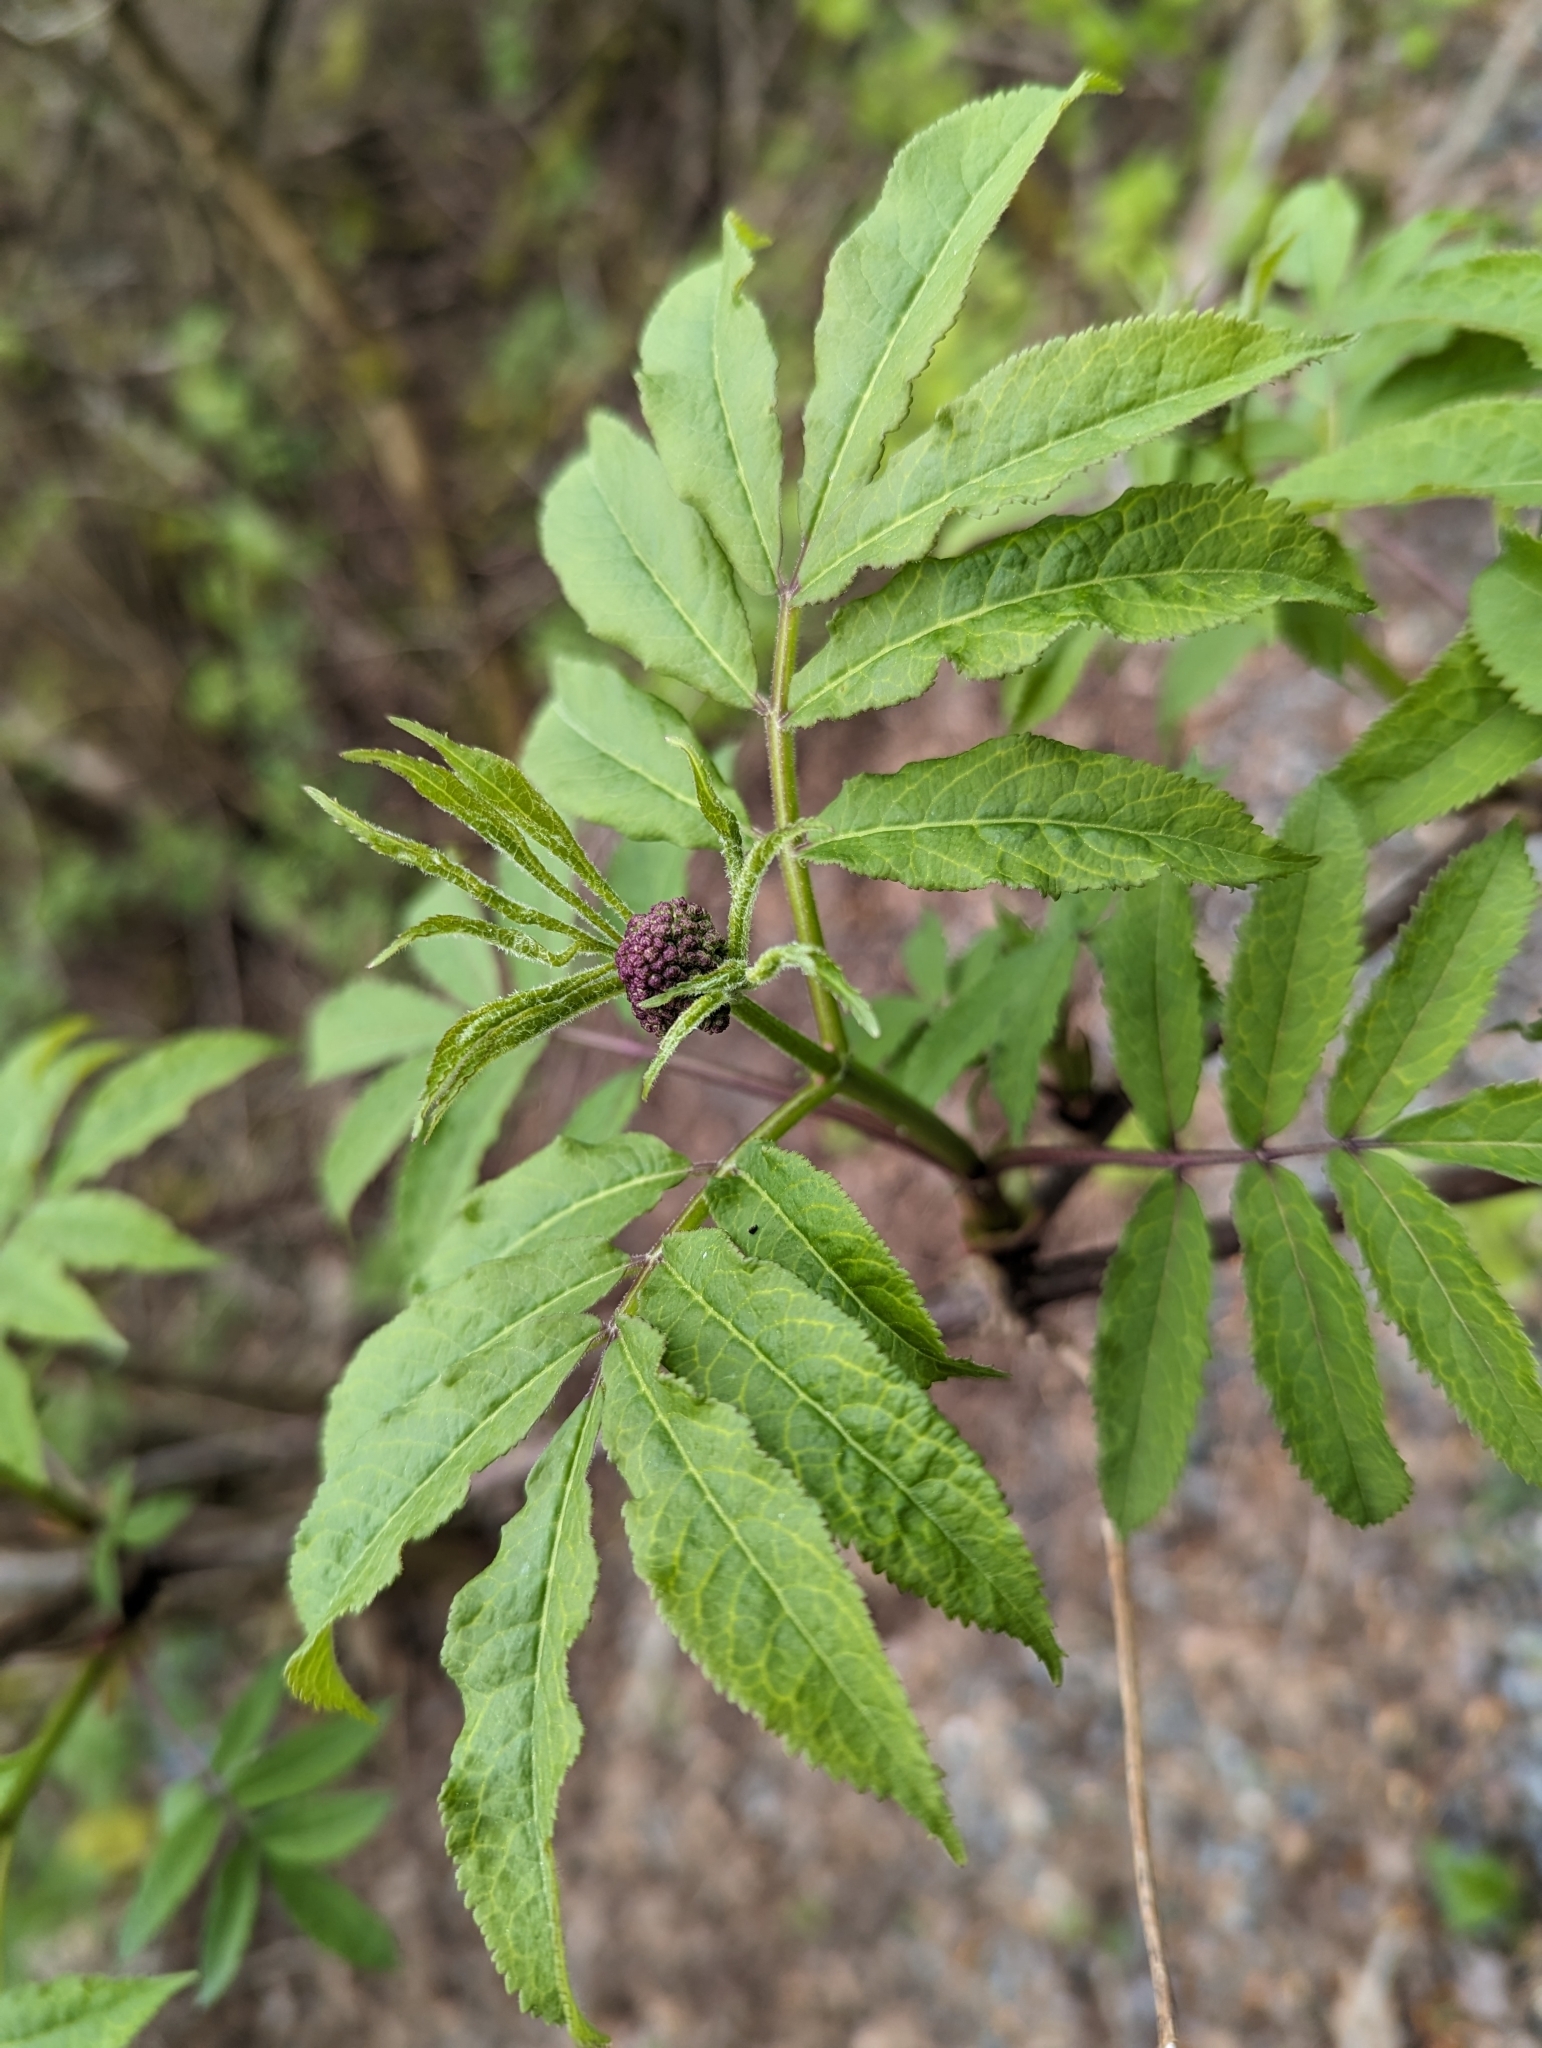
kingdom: Plantae
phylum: Tracheophyta
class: Magnoliopsida
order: Dipsacales
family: Viburnaceae
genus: Sambucus
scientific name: Sambucus racemosa
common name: Red-berried elder
